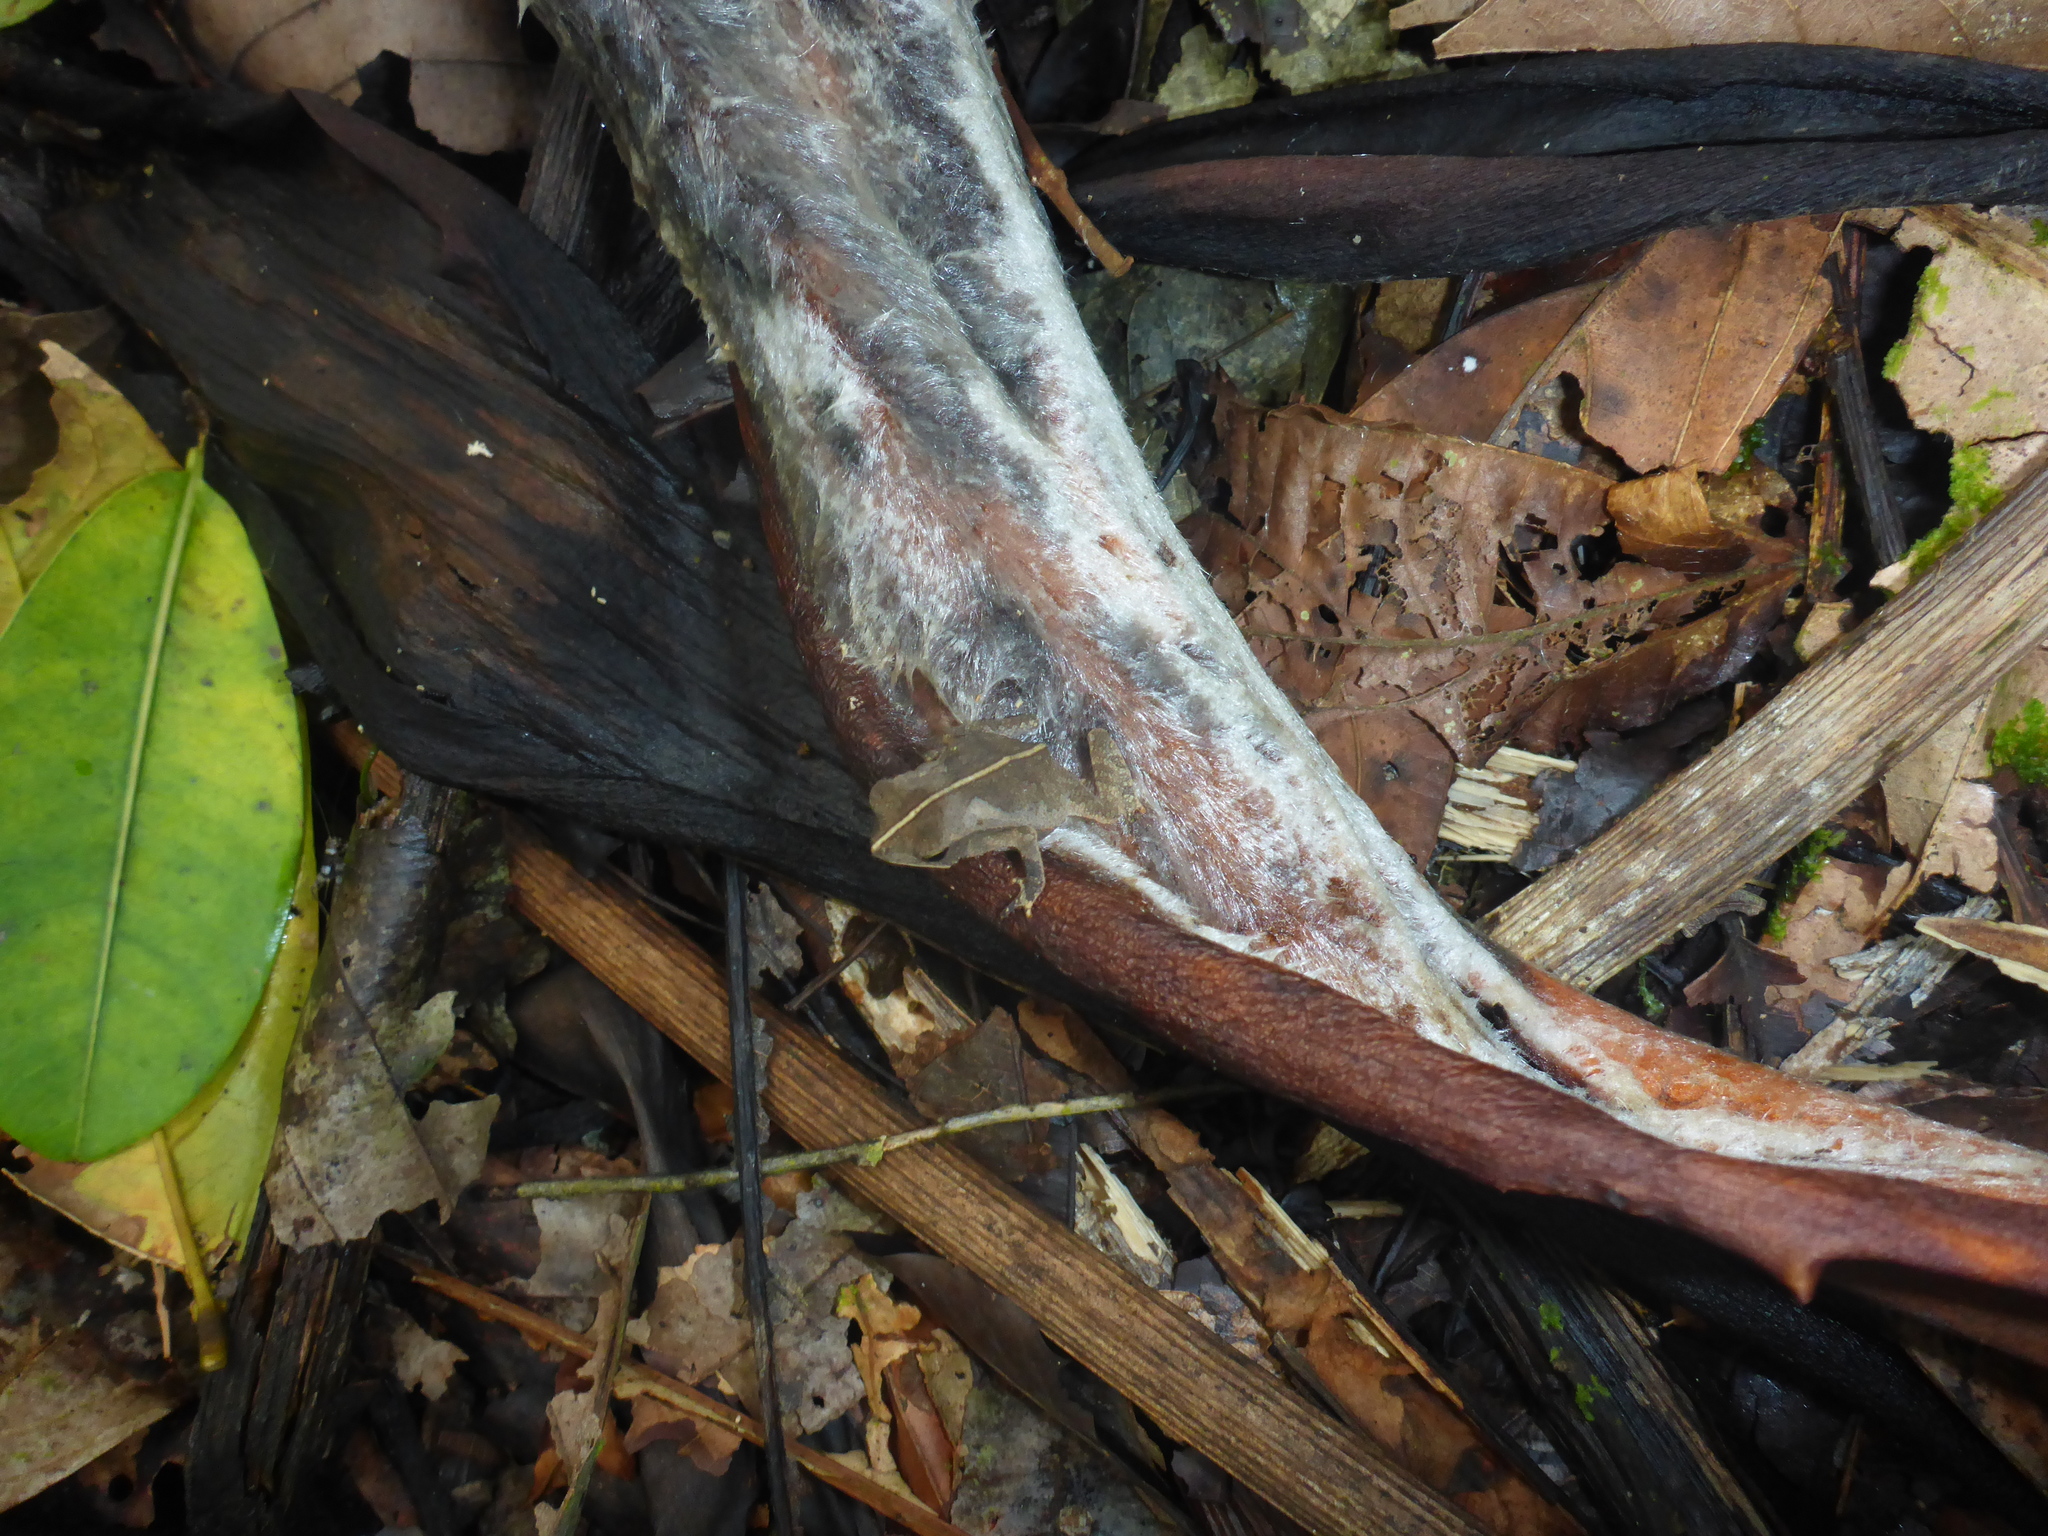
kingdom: Animalia
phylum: Chordata
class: Amphibia
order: Anura
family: Bufonidae
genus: Rhinella
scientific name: Rhinella margaritifera
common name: Mitred toad
